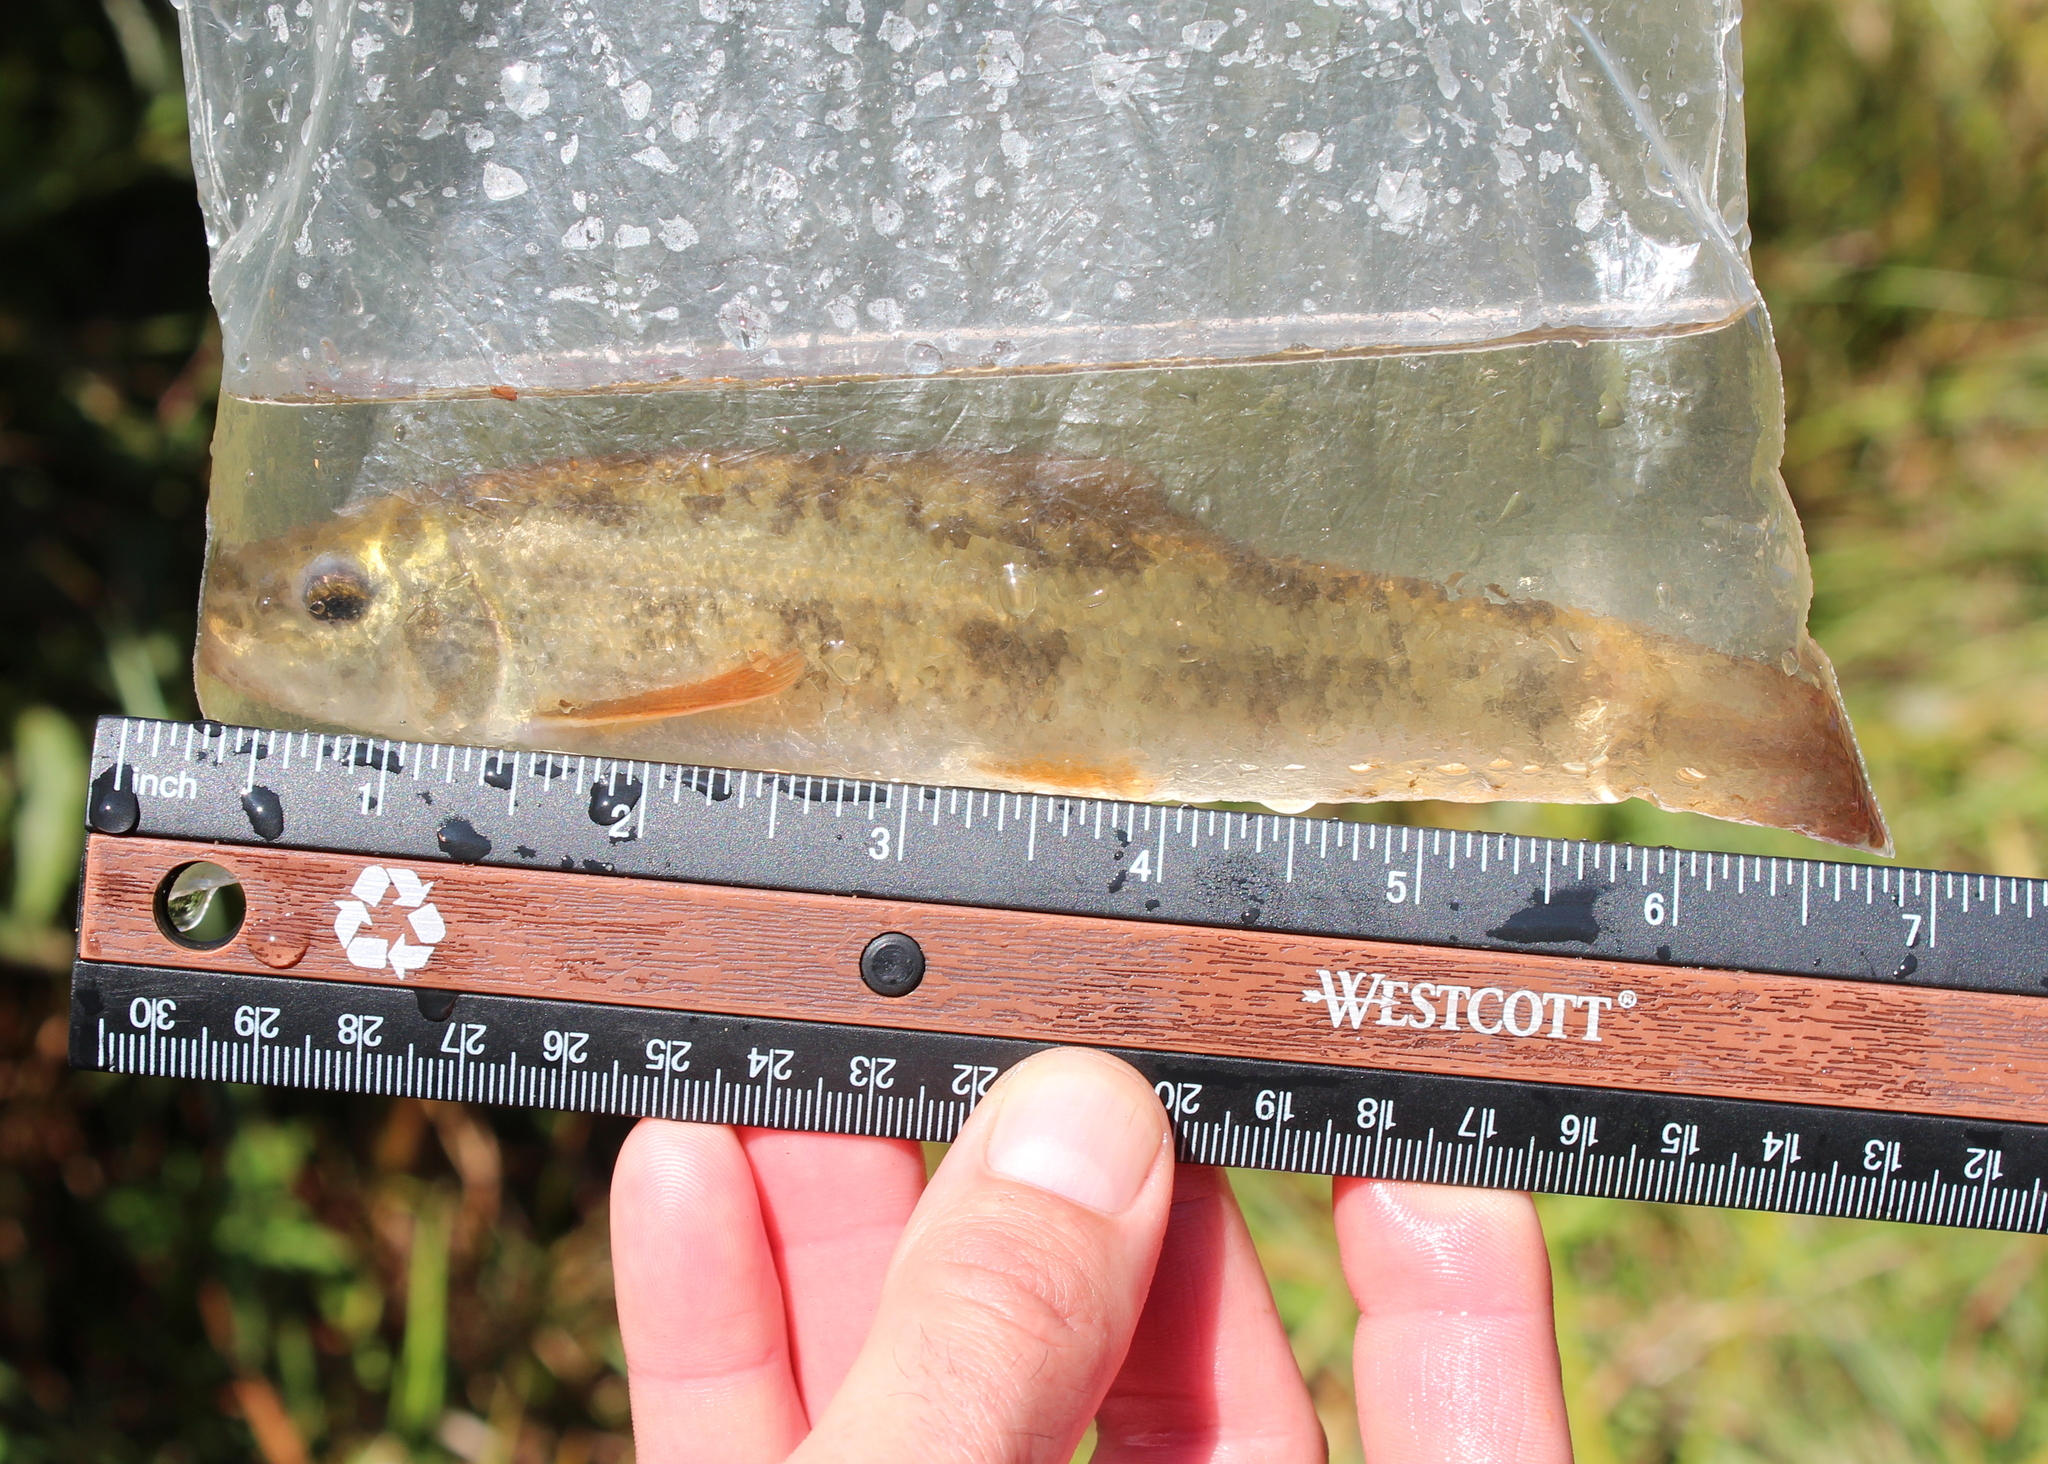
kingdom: Animalia
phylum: Chordata
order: Cypriniformes
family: Catostomidae
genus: Catostomus
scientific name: Catostomus commersonii
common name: White sucker
